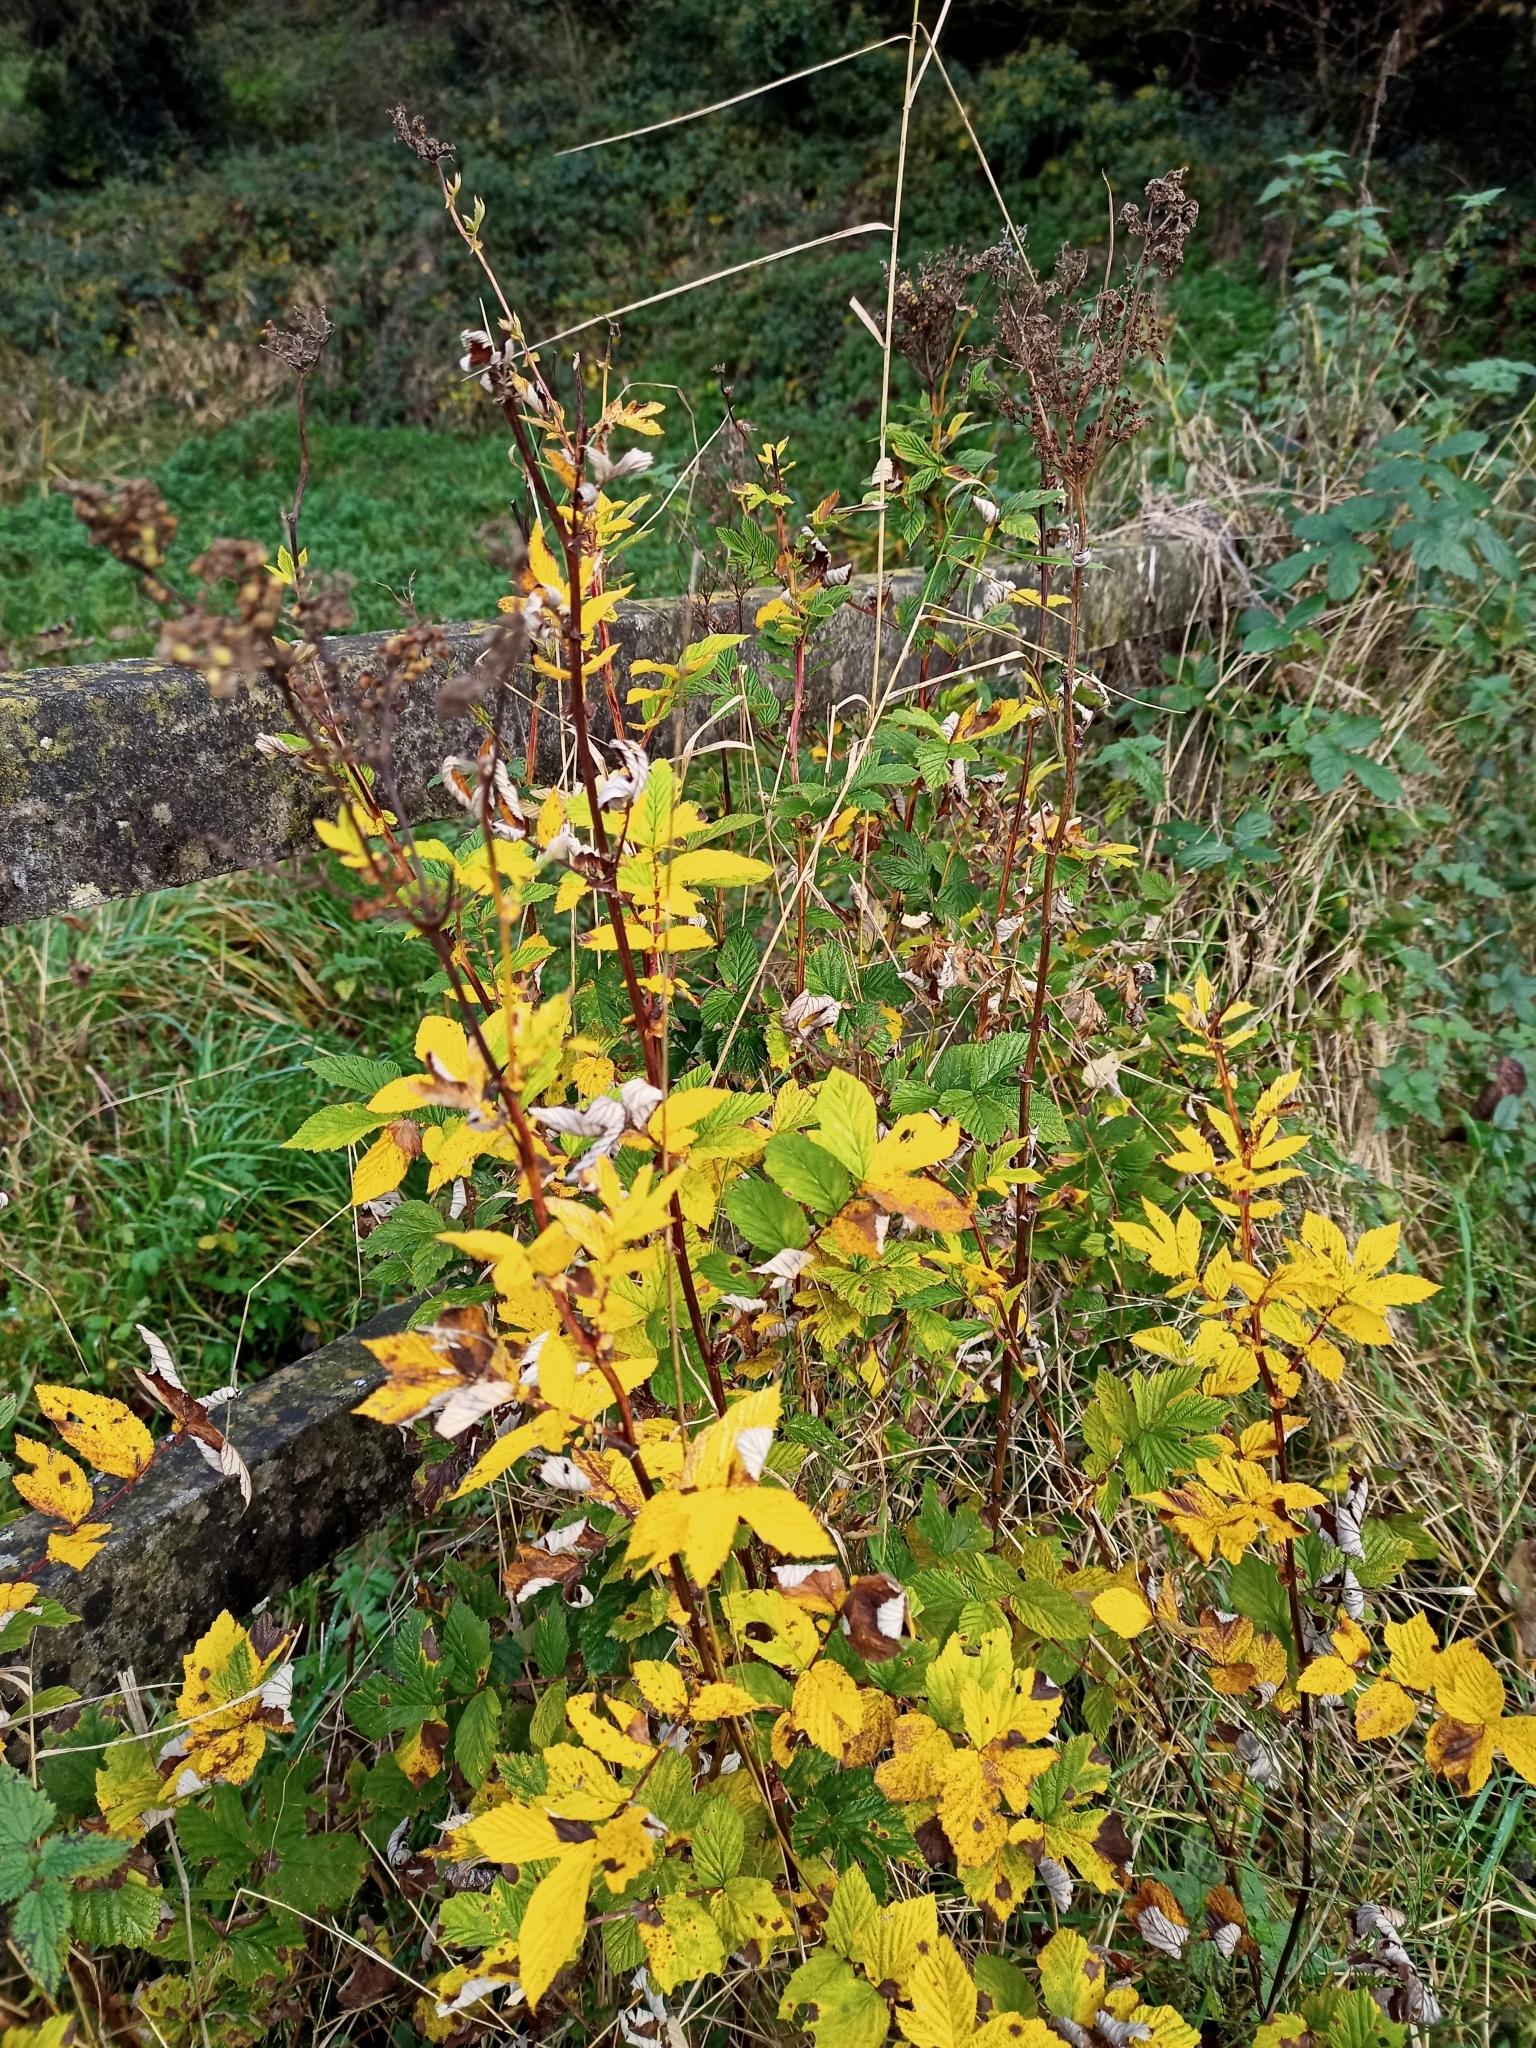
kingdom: Plantae
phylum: Tracheophyta
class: Magnoliopsida
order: Rosales
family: Rosaceae
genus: Filipendula
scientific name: Filipendula ulmaria
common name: Meadowsweet
